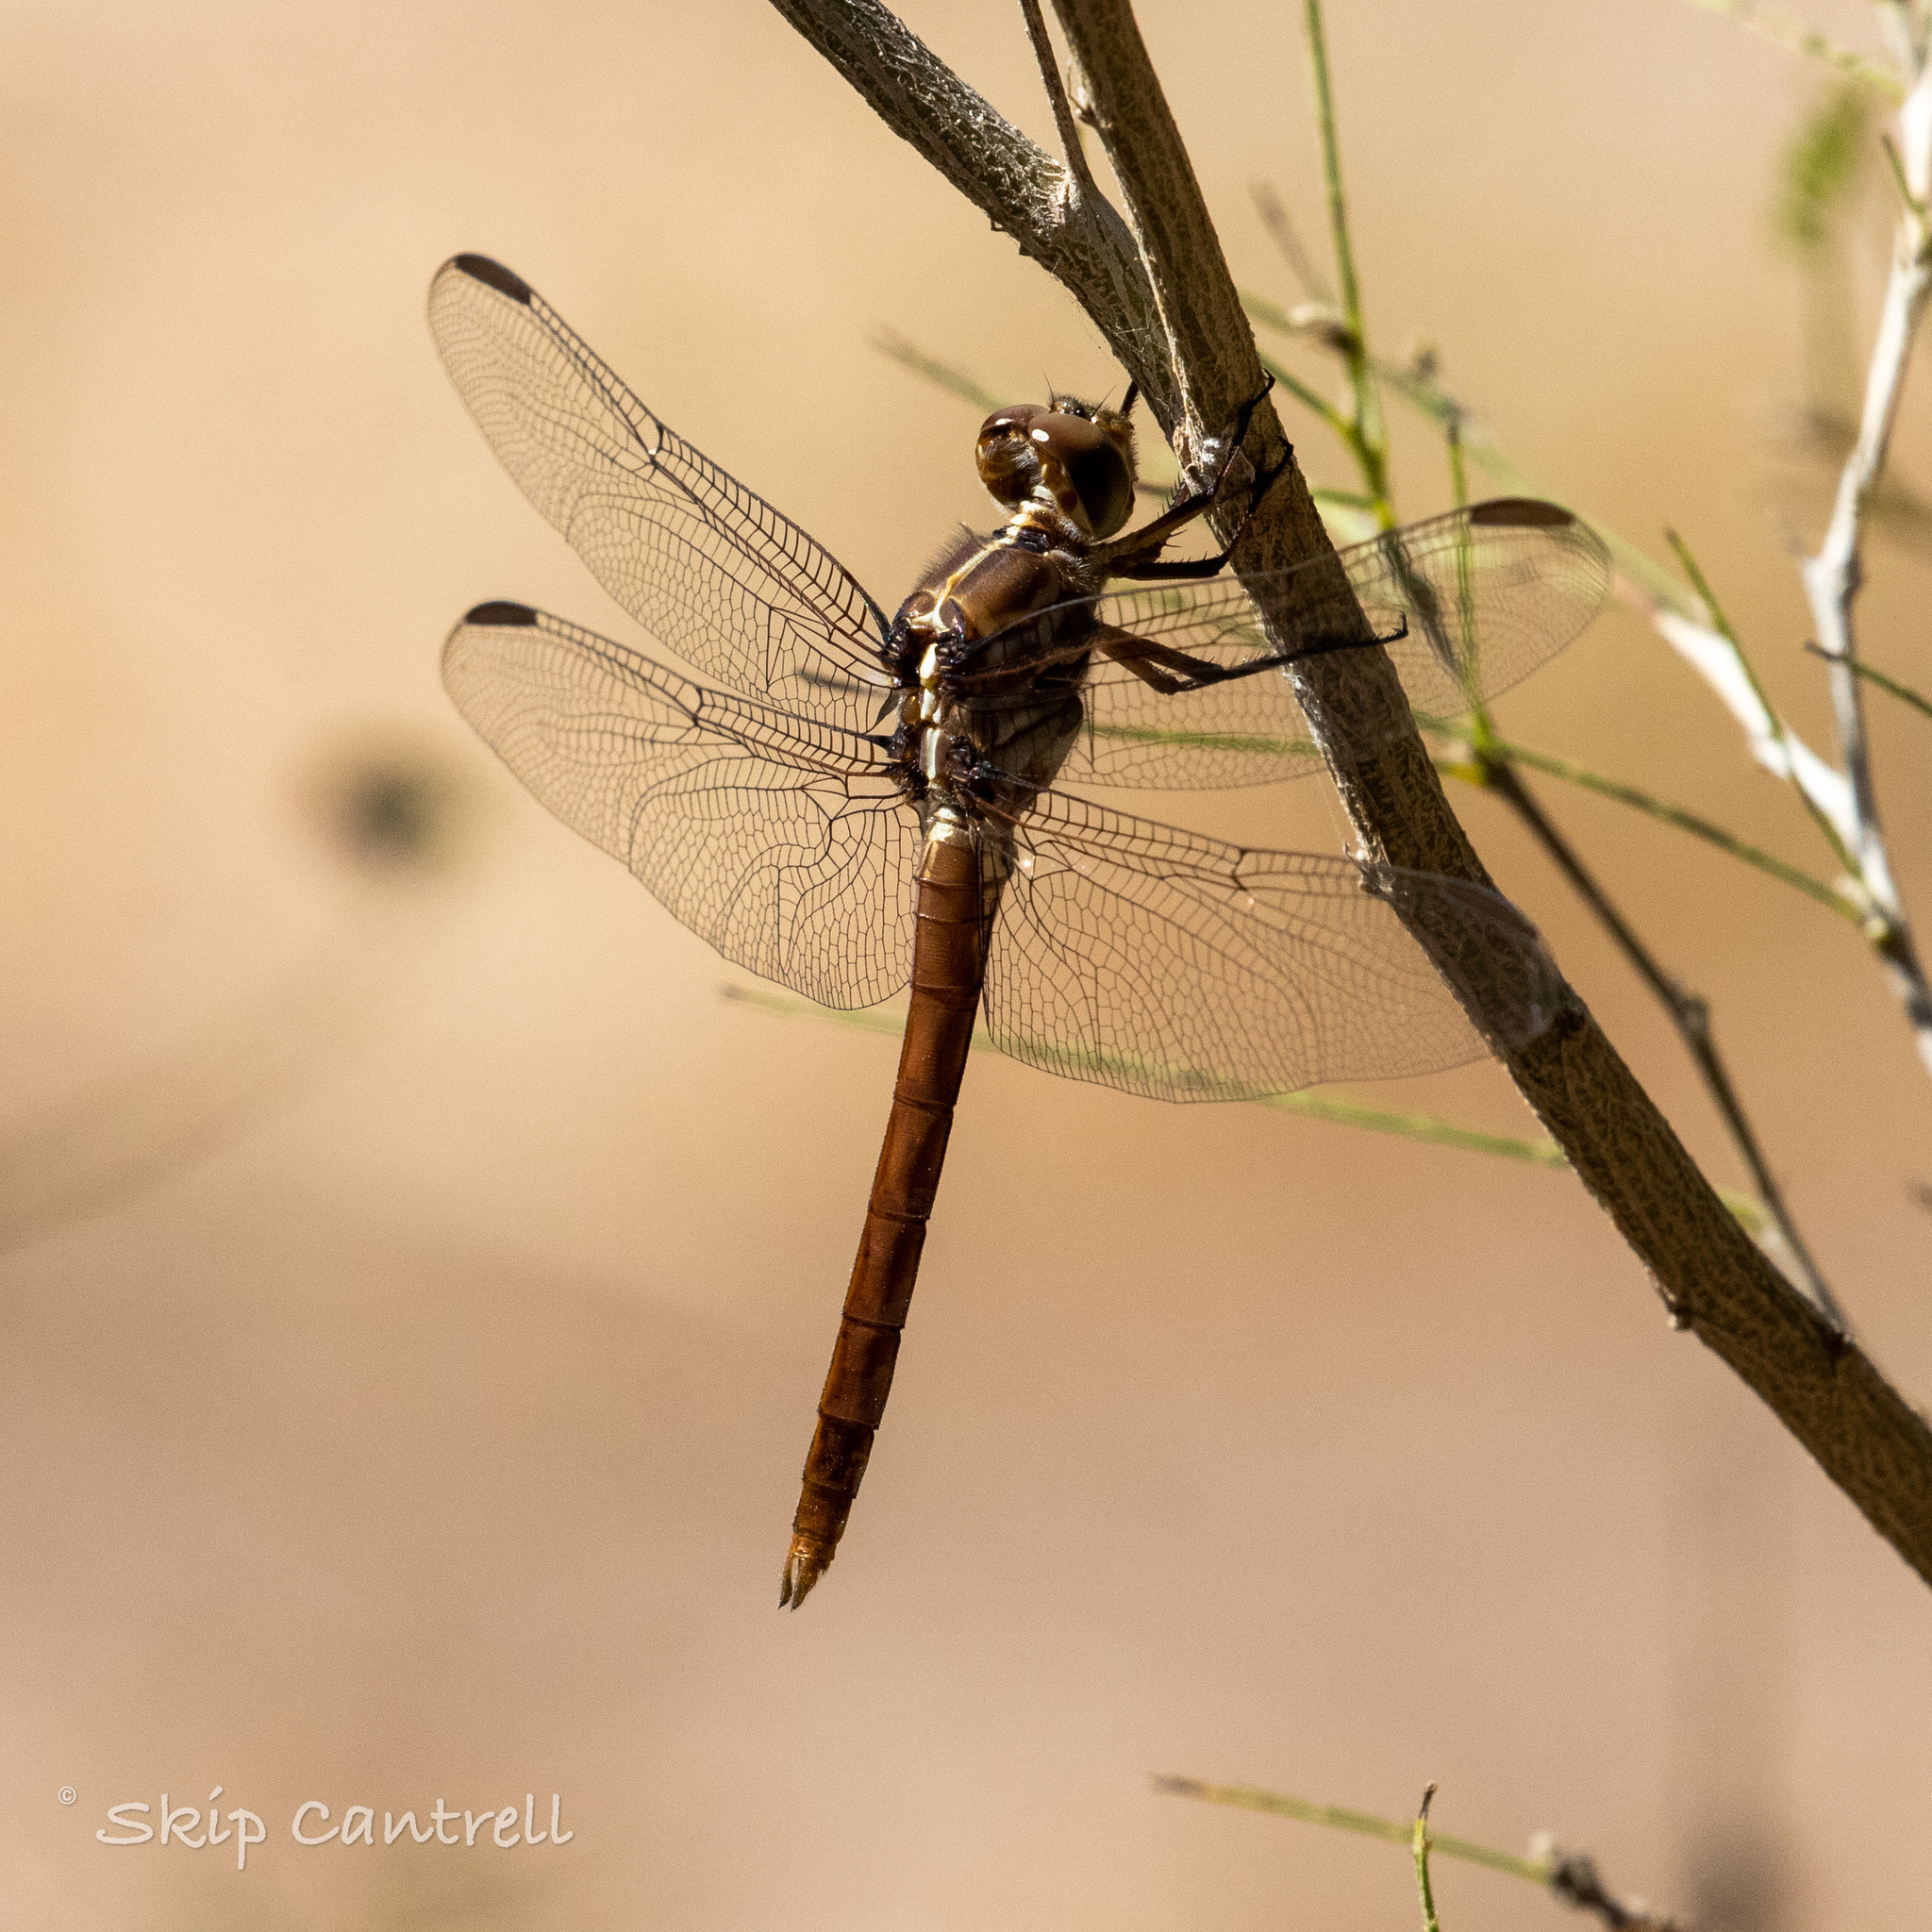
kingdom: Animalia
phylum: Arthropoda
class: Insecta
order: Odonata
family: Libellulidae
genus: Orthemis
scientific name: Orthemis ferruginea
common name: Roseate skimmer
